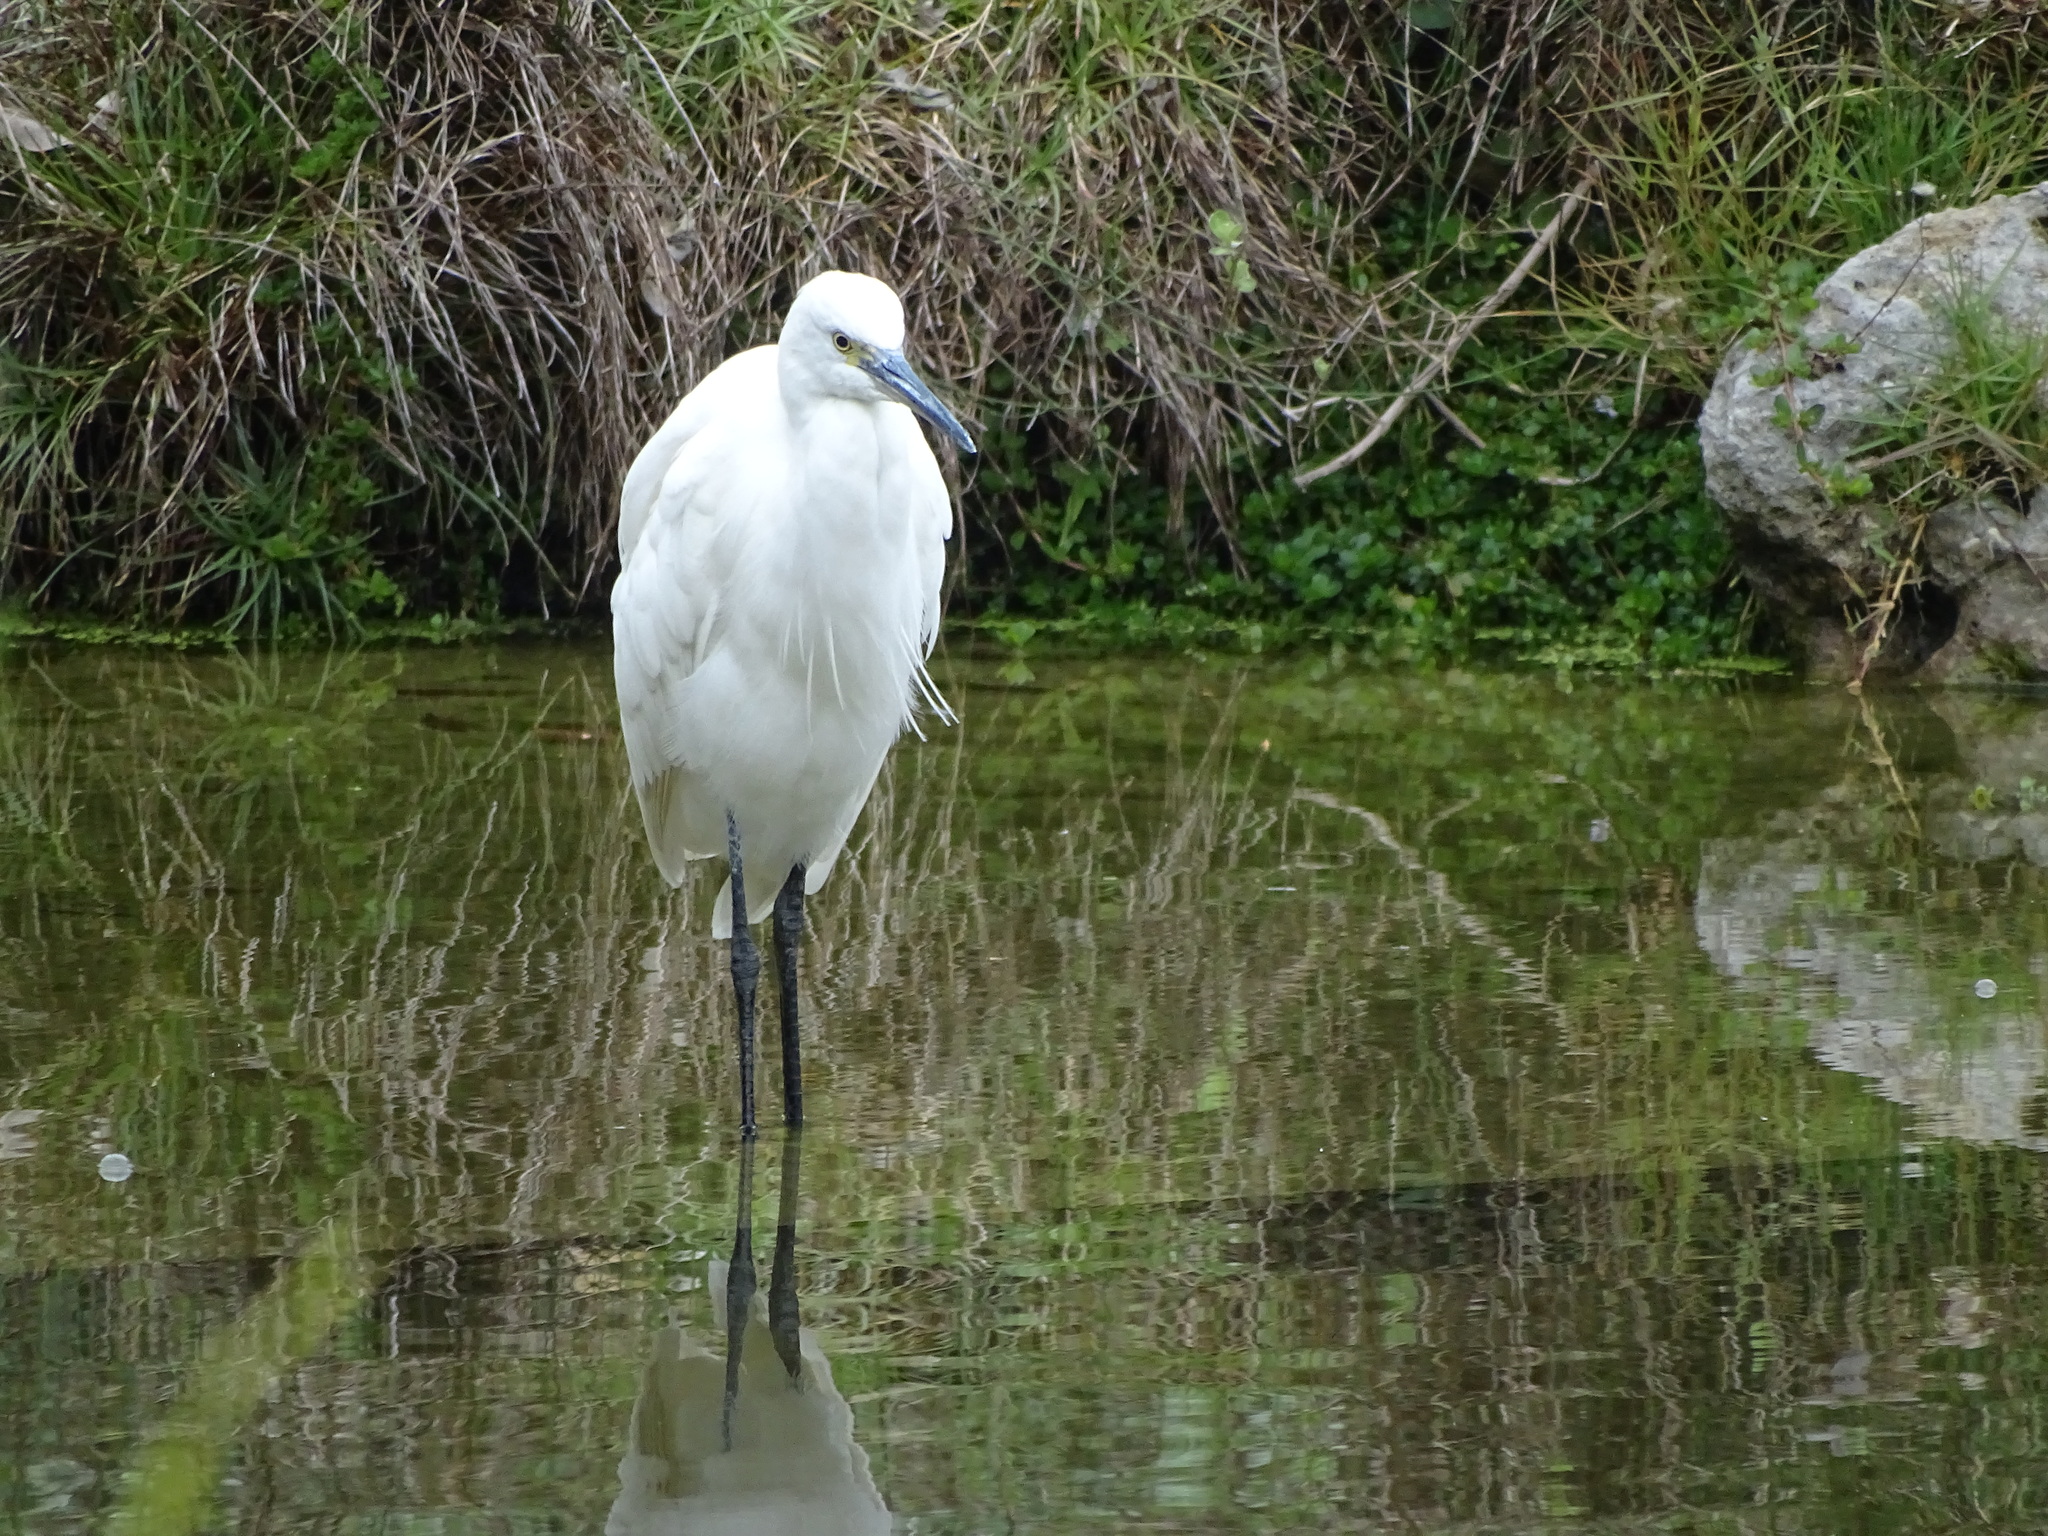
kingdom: Animalia
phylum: Chordata
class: Aves
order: Pelecaniformes
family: Ardeidae
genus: Egretta
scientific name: Egretta garzetta
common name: Little egret
